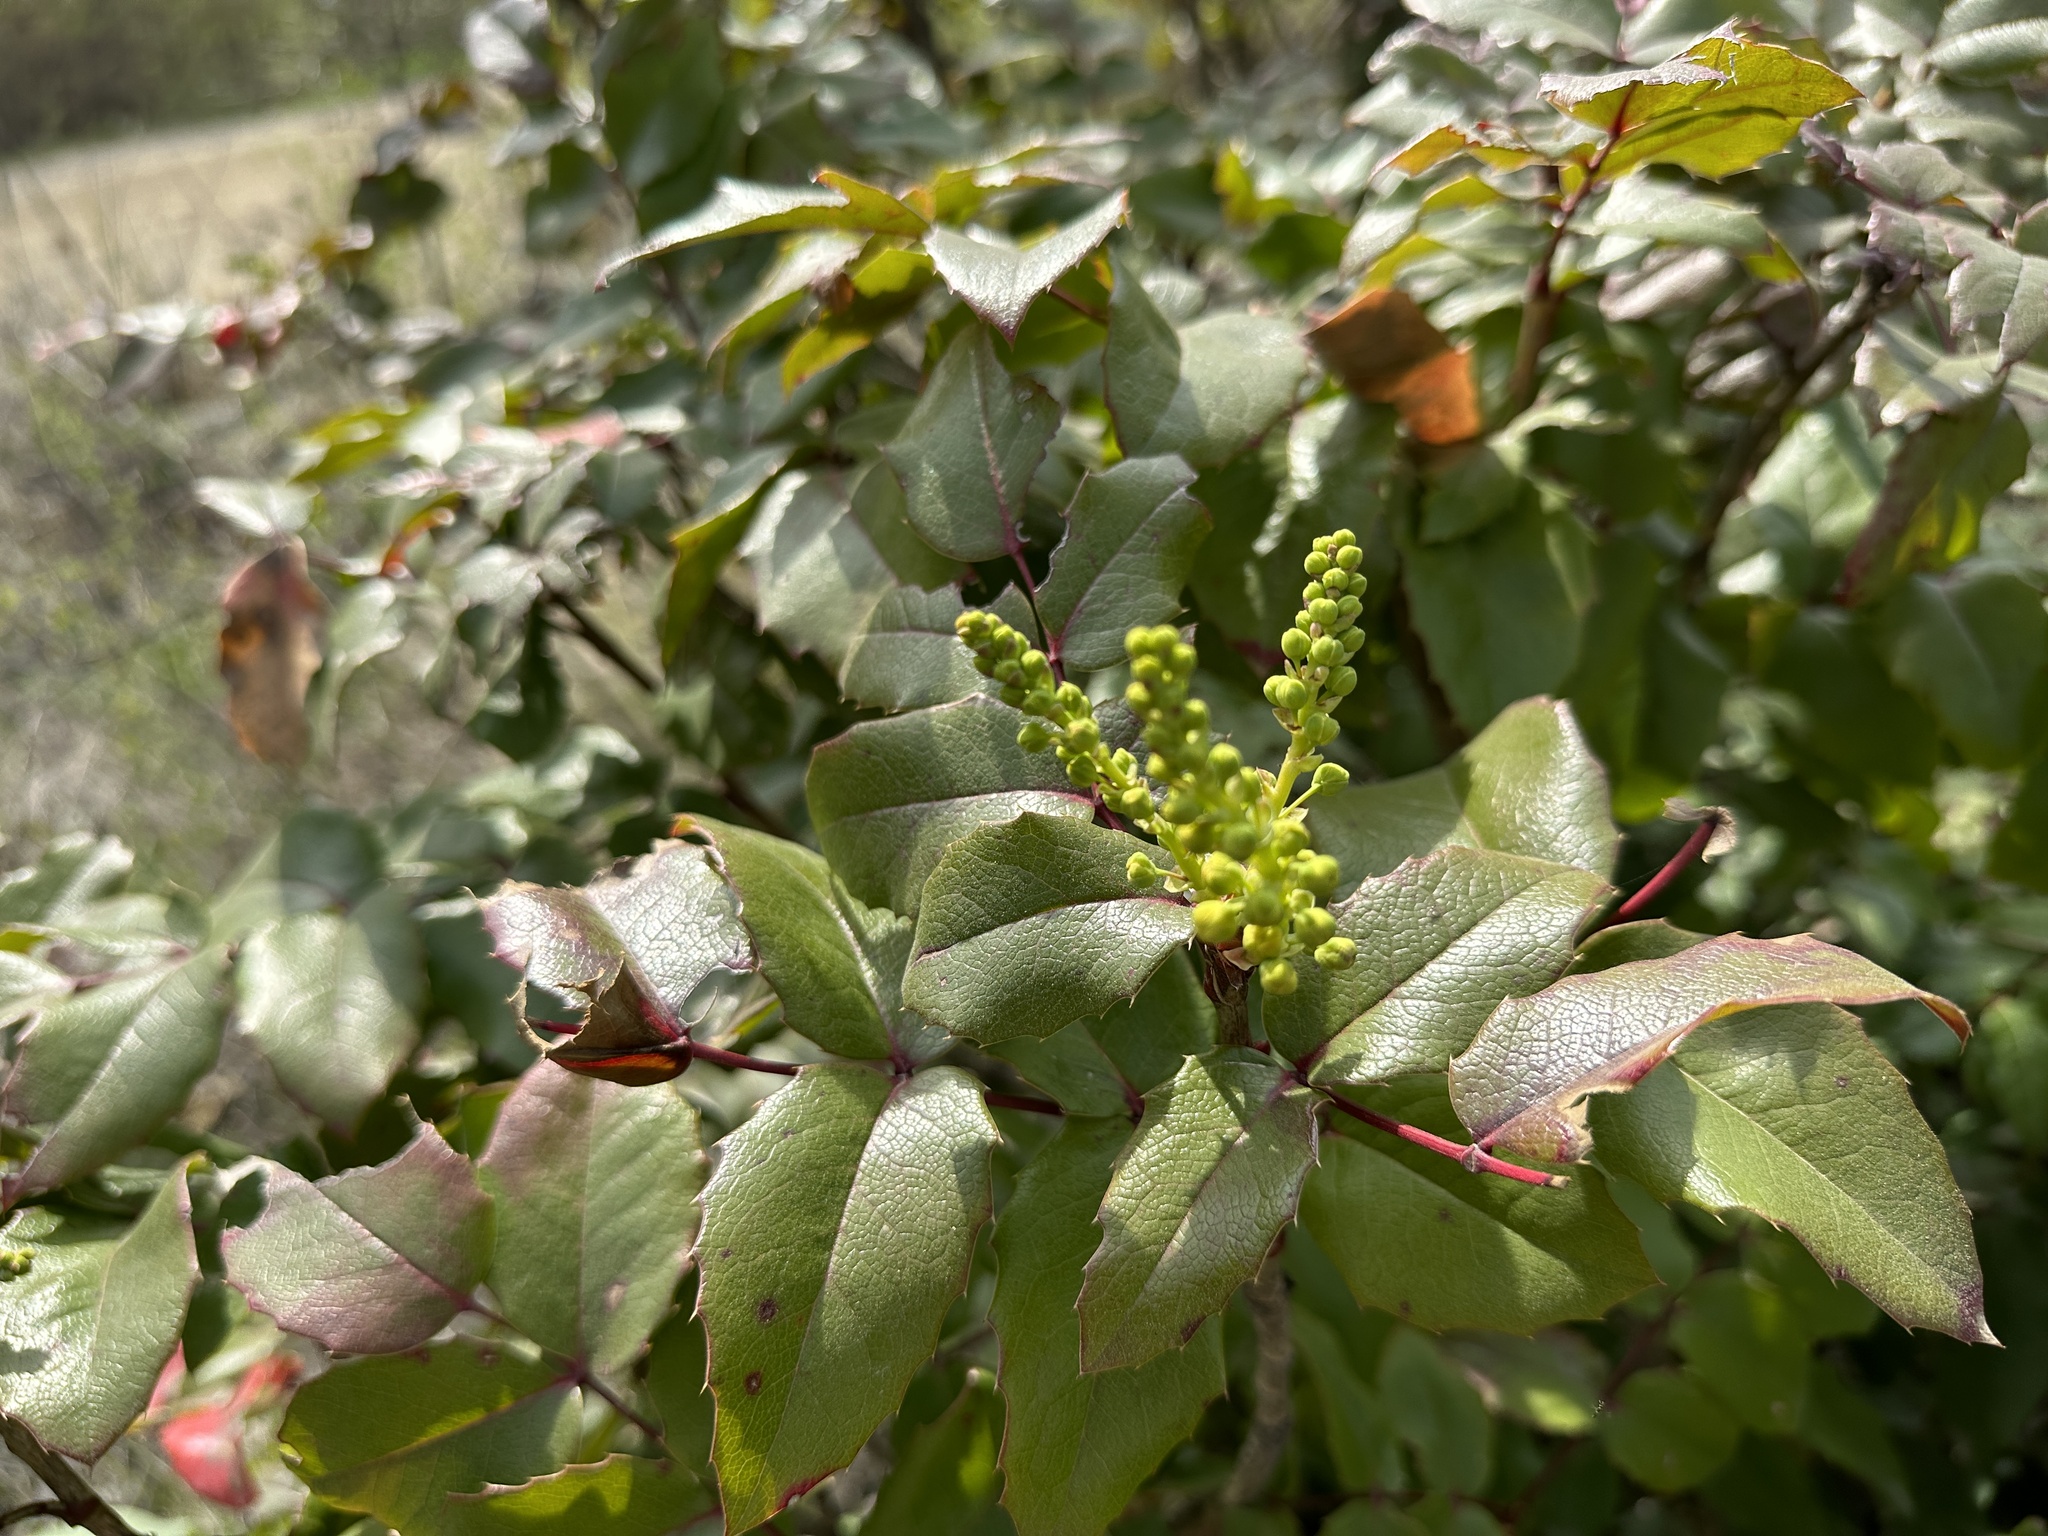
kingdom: Plantae
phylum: Tracheophyta
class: Magnoliopsida
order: Ranunculales
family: Berberidaceae
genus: Mahonia
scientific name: Mahonia aquifolium
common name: Oregon-grape
